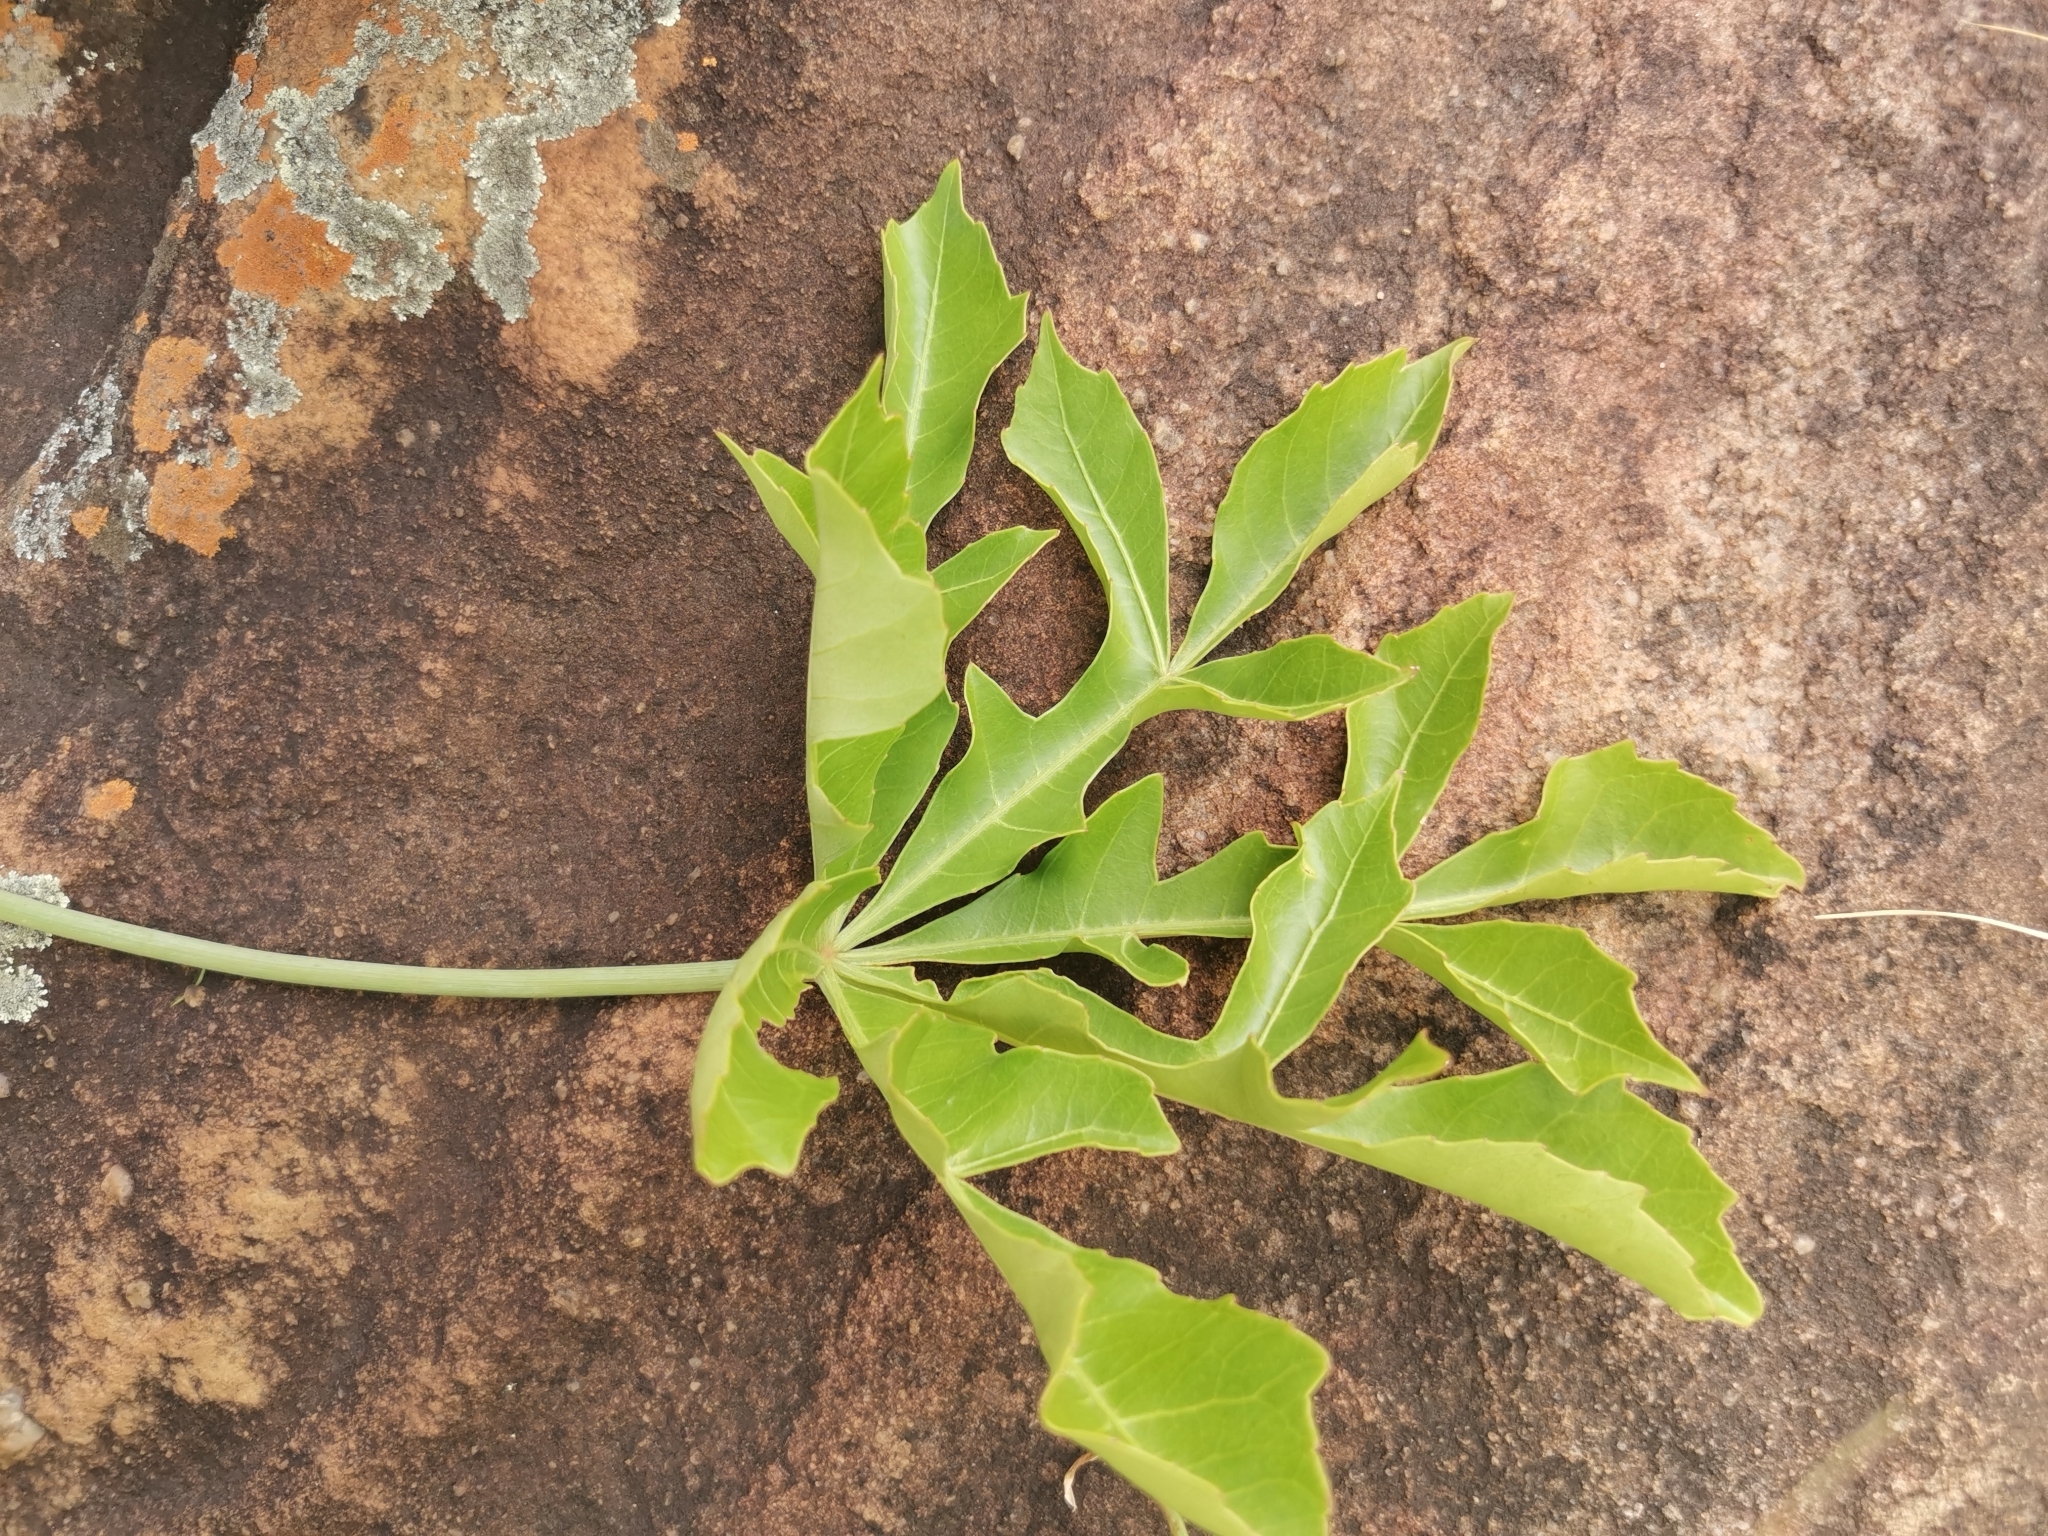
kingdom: Plantae
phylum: Tracheophyta
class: Magnoliopsida
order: Apiales
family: Araliaceae
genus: Cussonia
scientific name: Cussonia spicata
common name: Common cabbagetree
